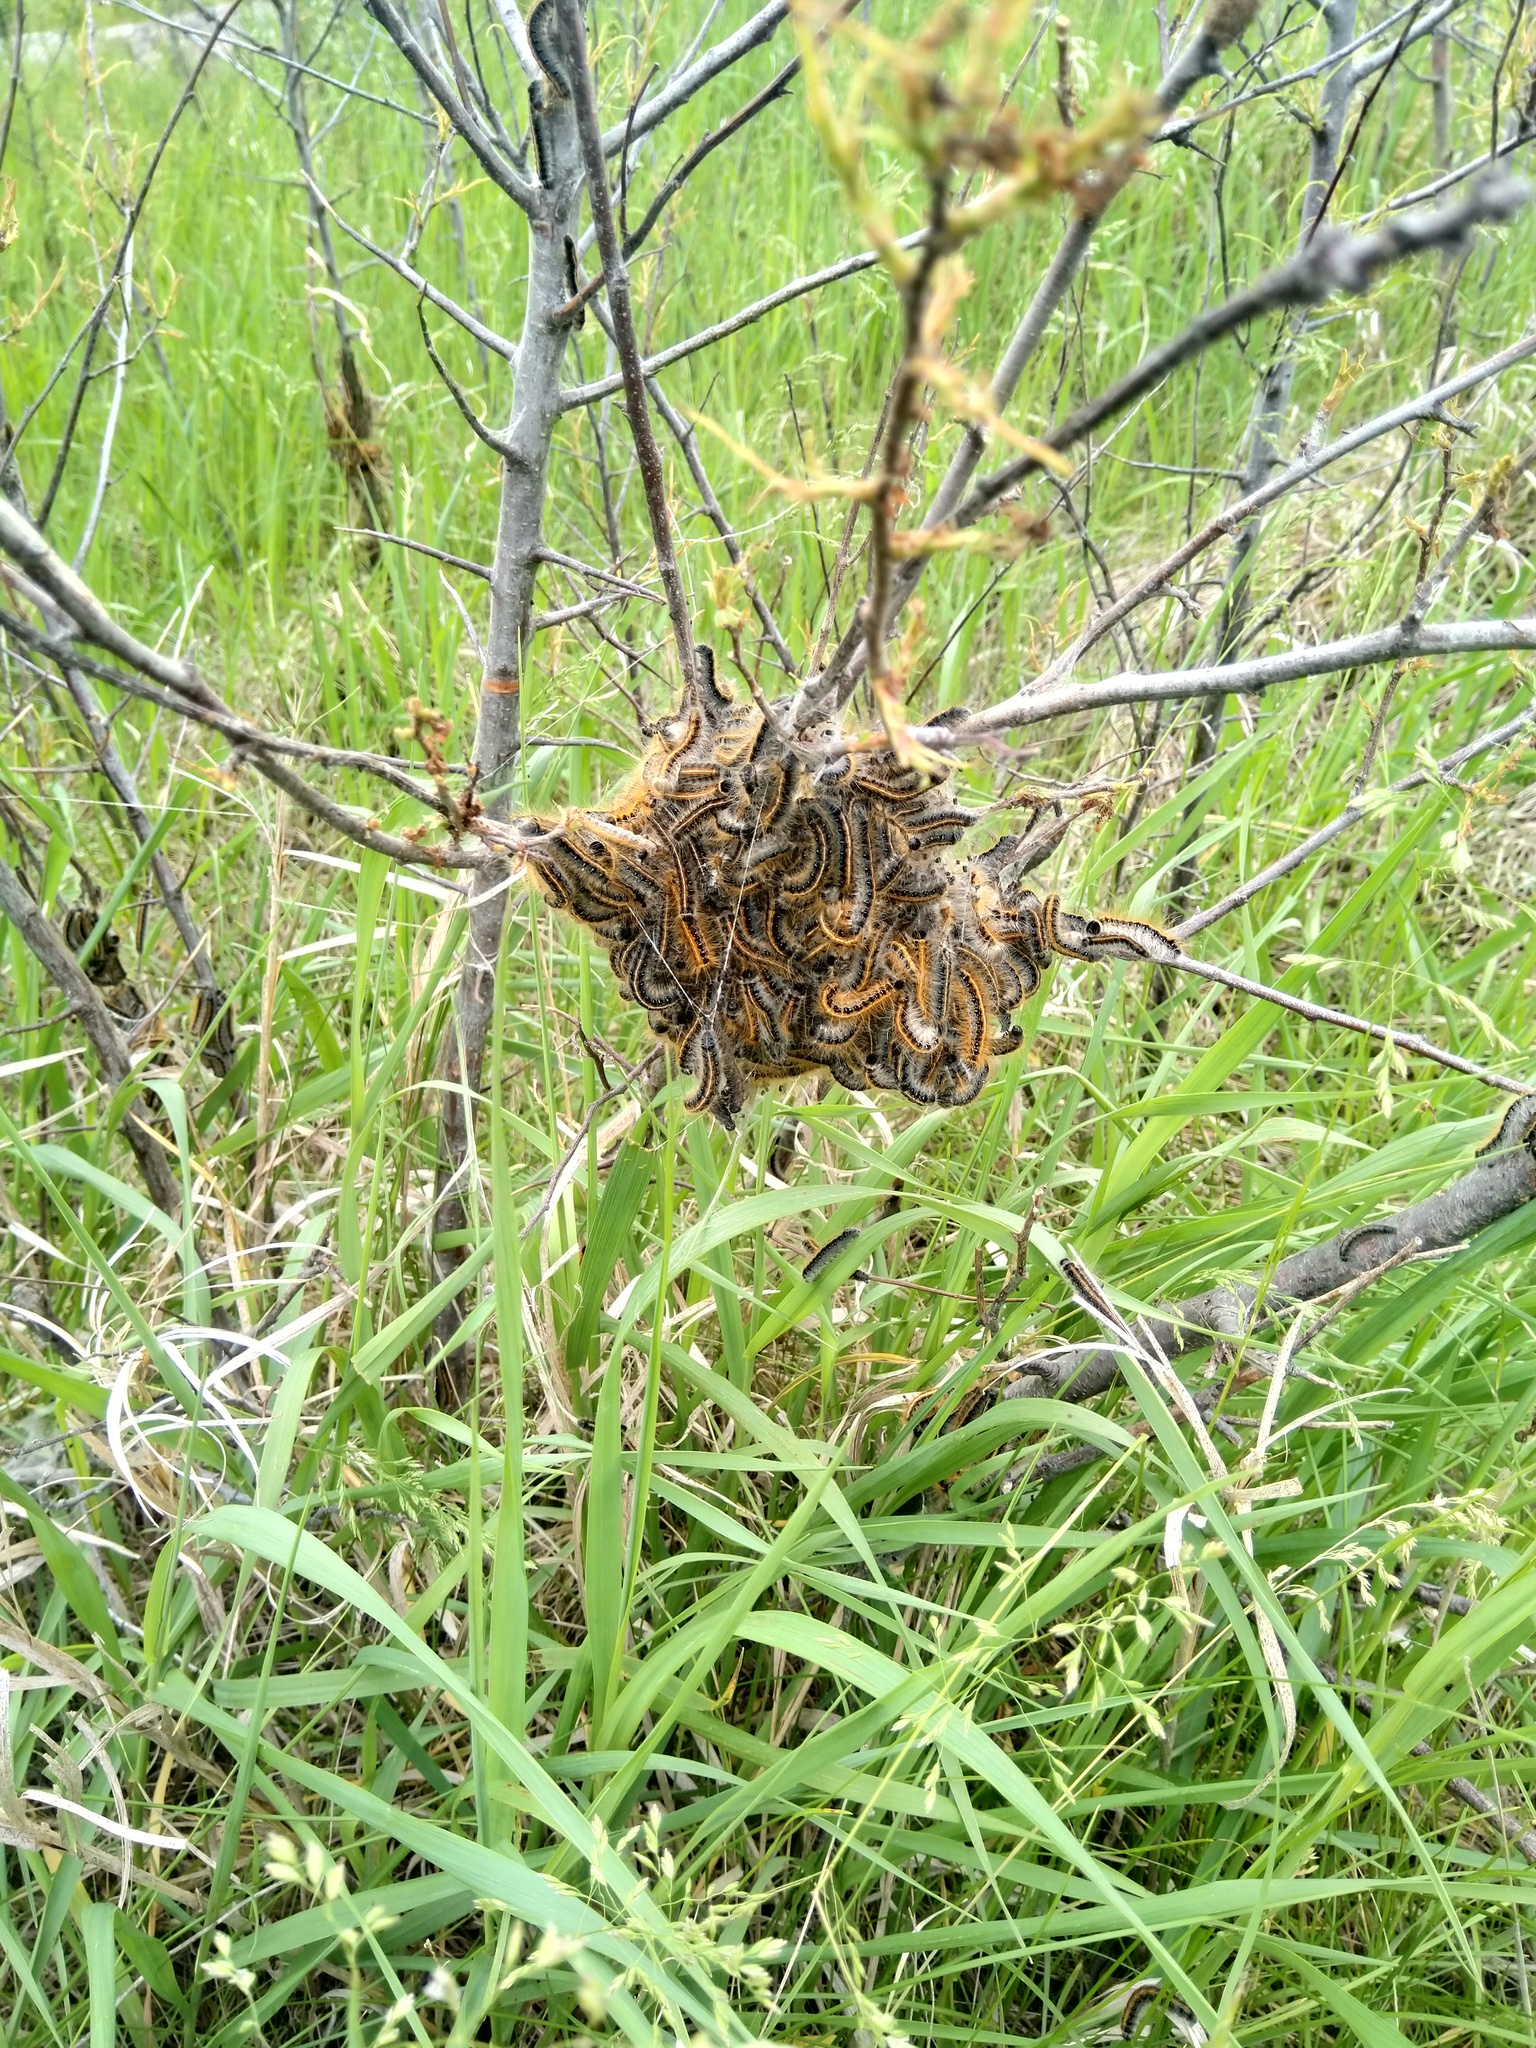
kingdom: Animalia
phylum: Arthropoda
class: Insecta
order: Lepidoptera
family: Lasiocampidae
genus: Malacosoma
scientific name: Malacosoma americana
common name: Eastern tent caterpillar moth
